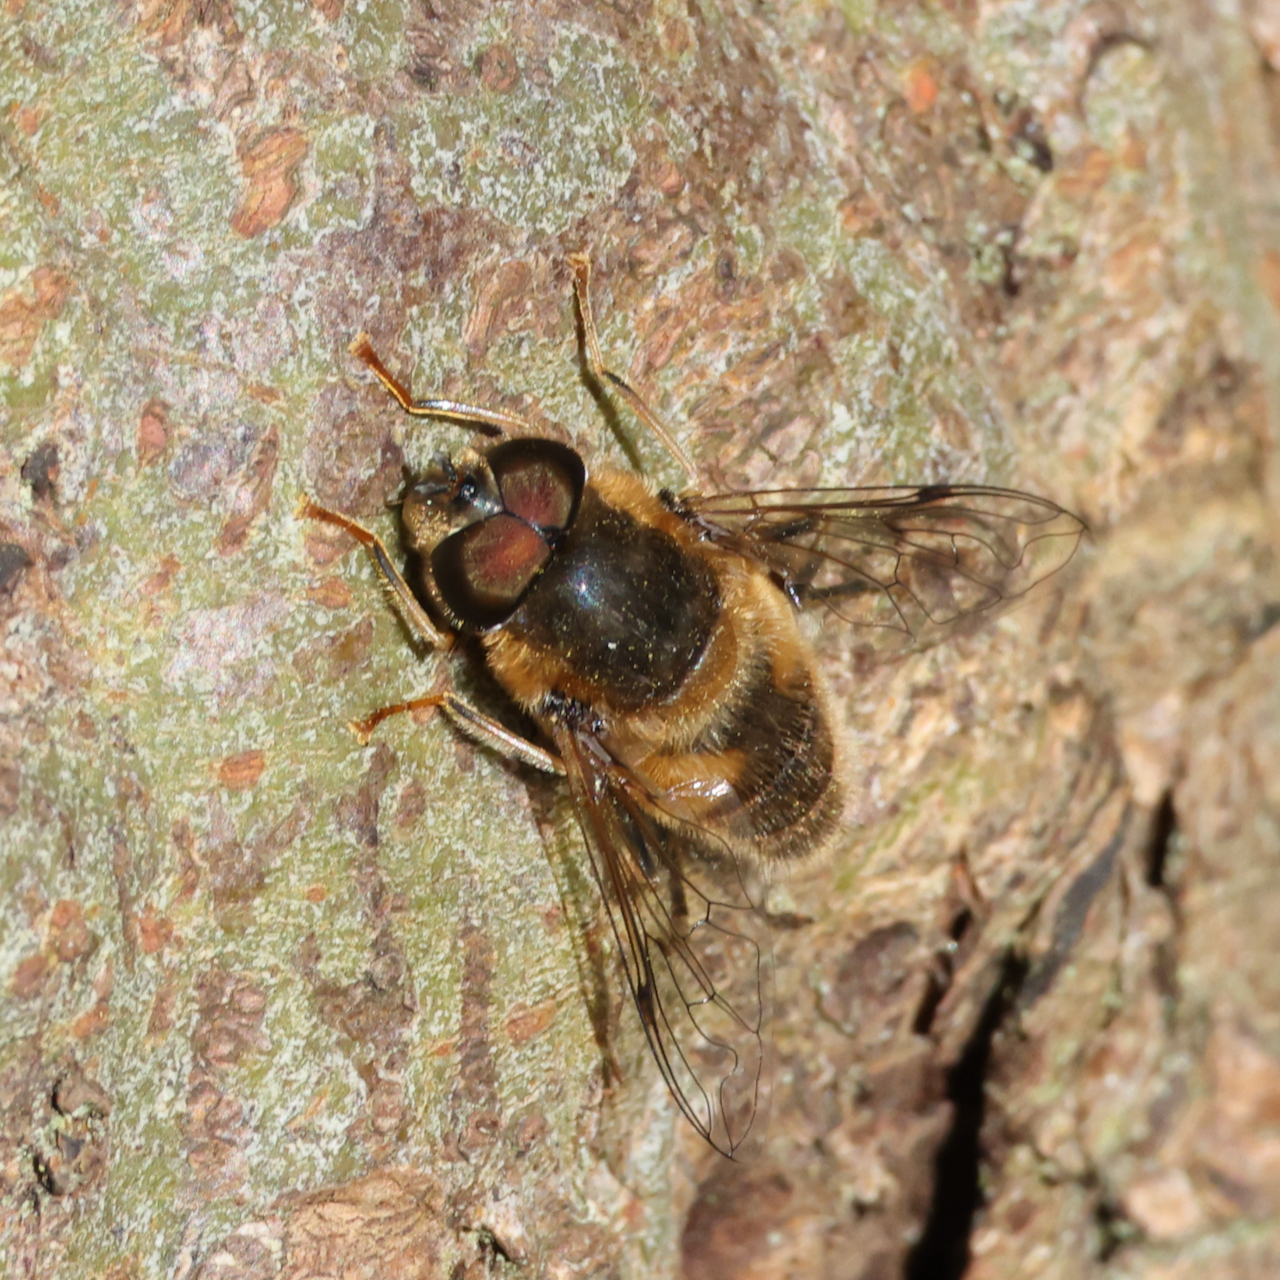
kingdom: Animalia
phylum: Arthropoda
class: Insecta
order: Diptera
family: Syrphidae
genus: Eristalis
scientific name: Eristalis pertinax
